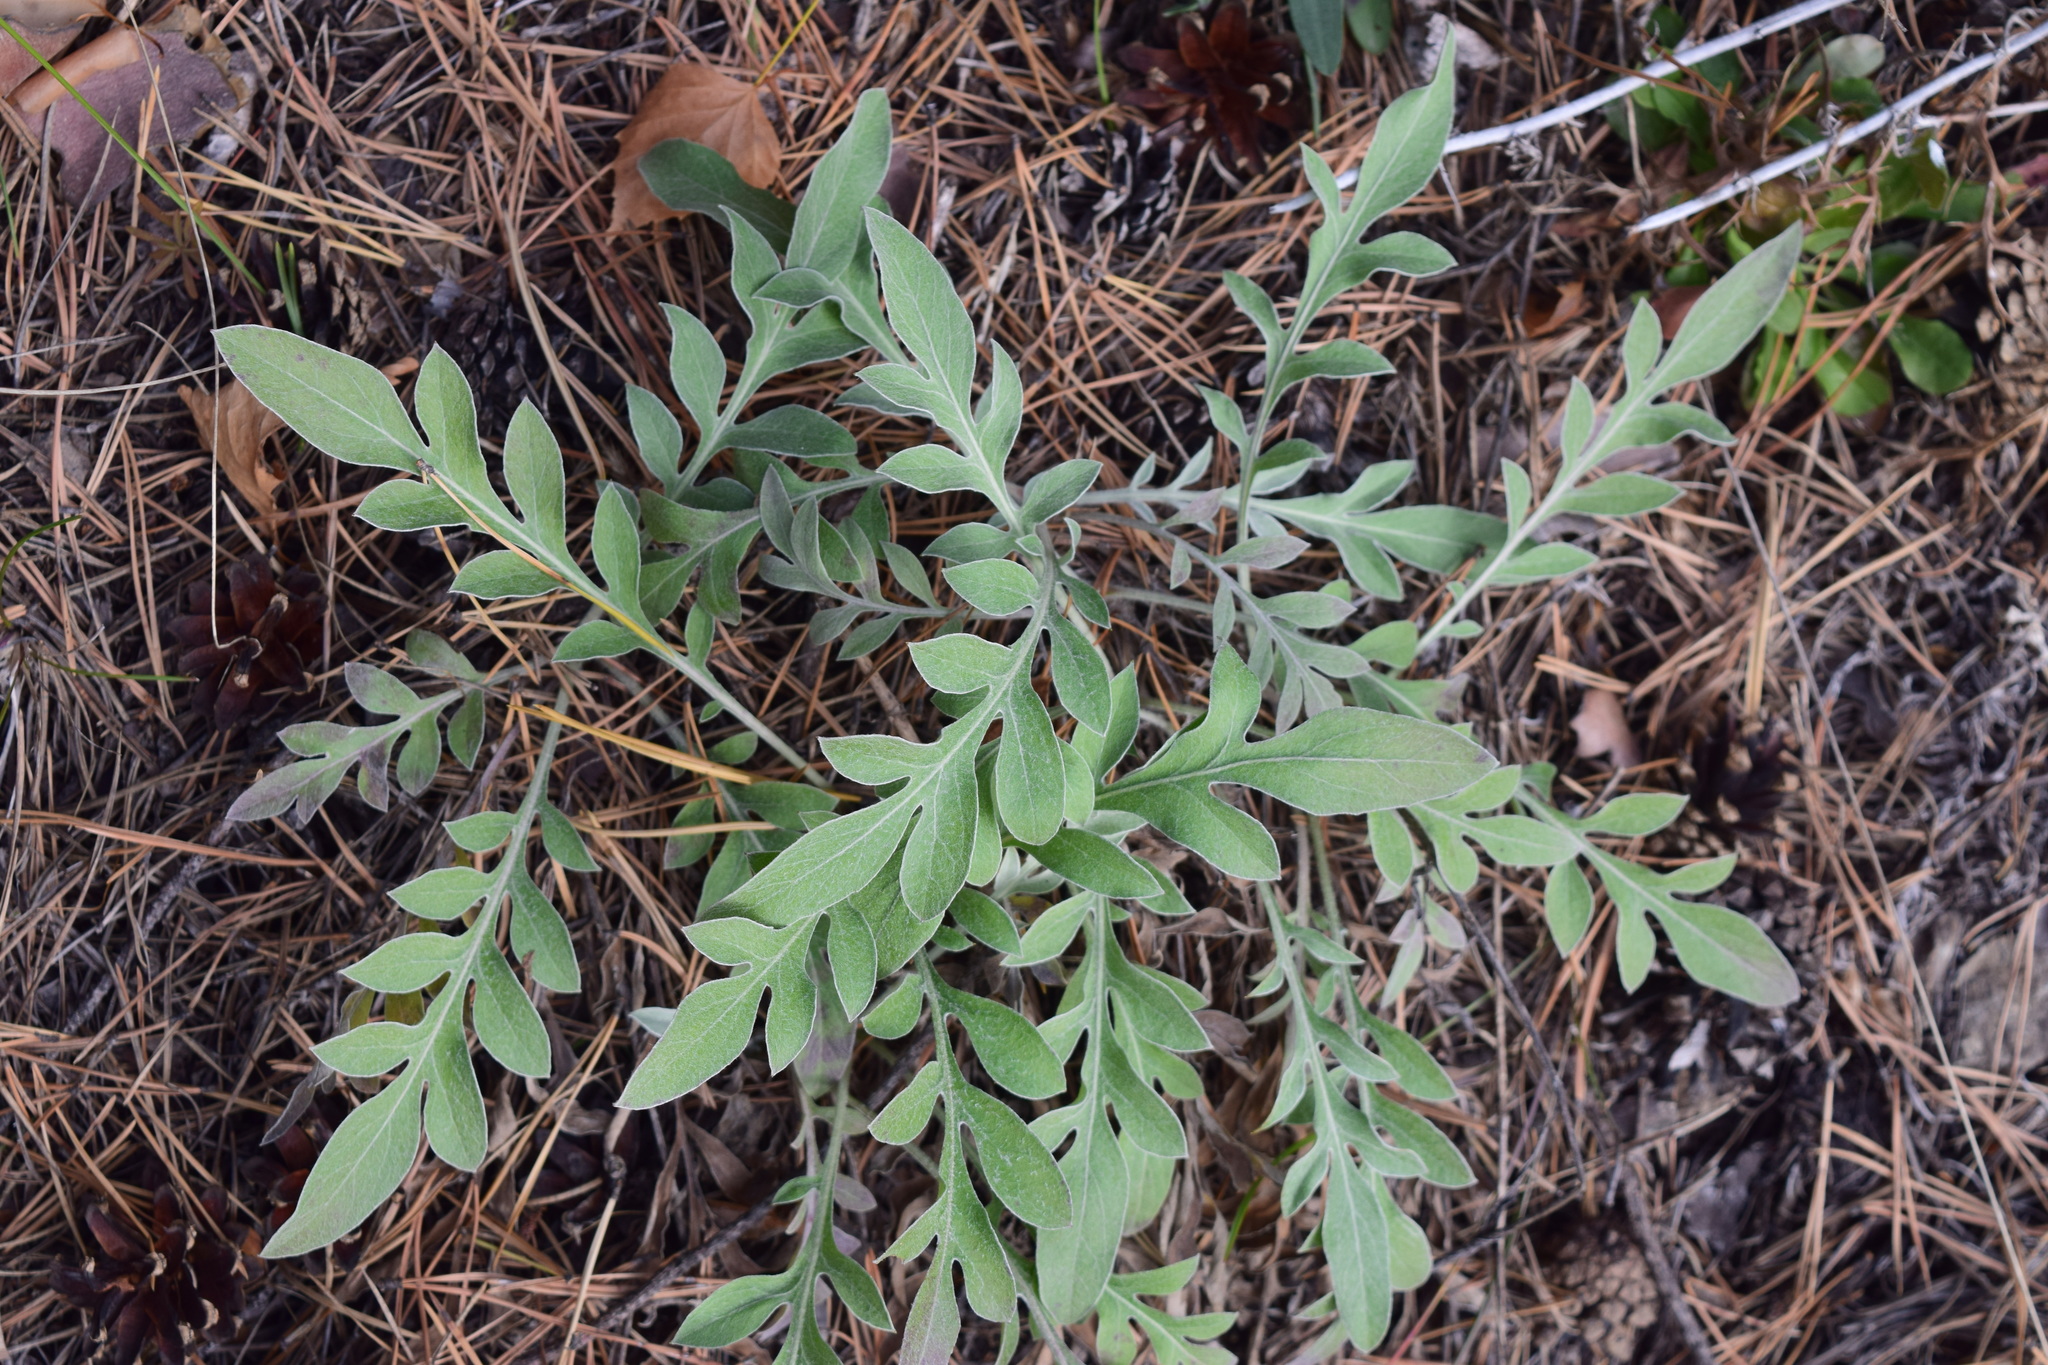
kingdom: Plantae
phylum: Tracheophyta
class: Magnoliopsida
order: Asterales
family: Asteraceae
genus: Psephellus
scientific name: Psephellus sibiricus
